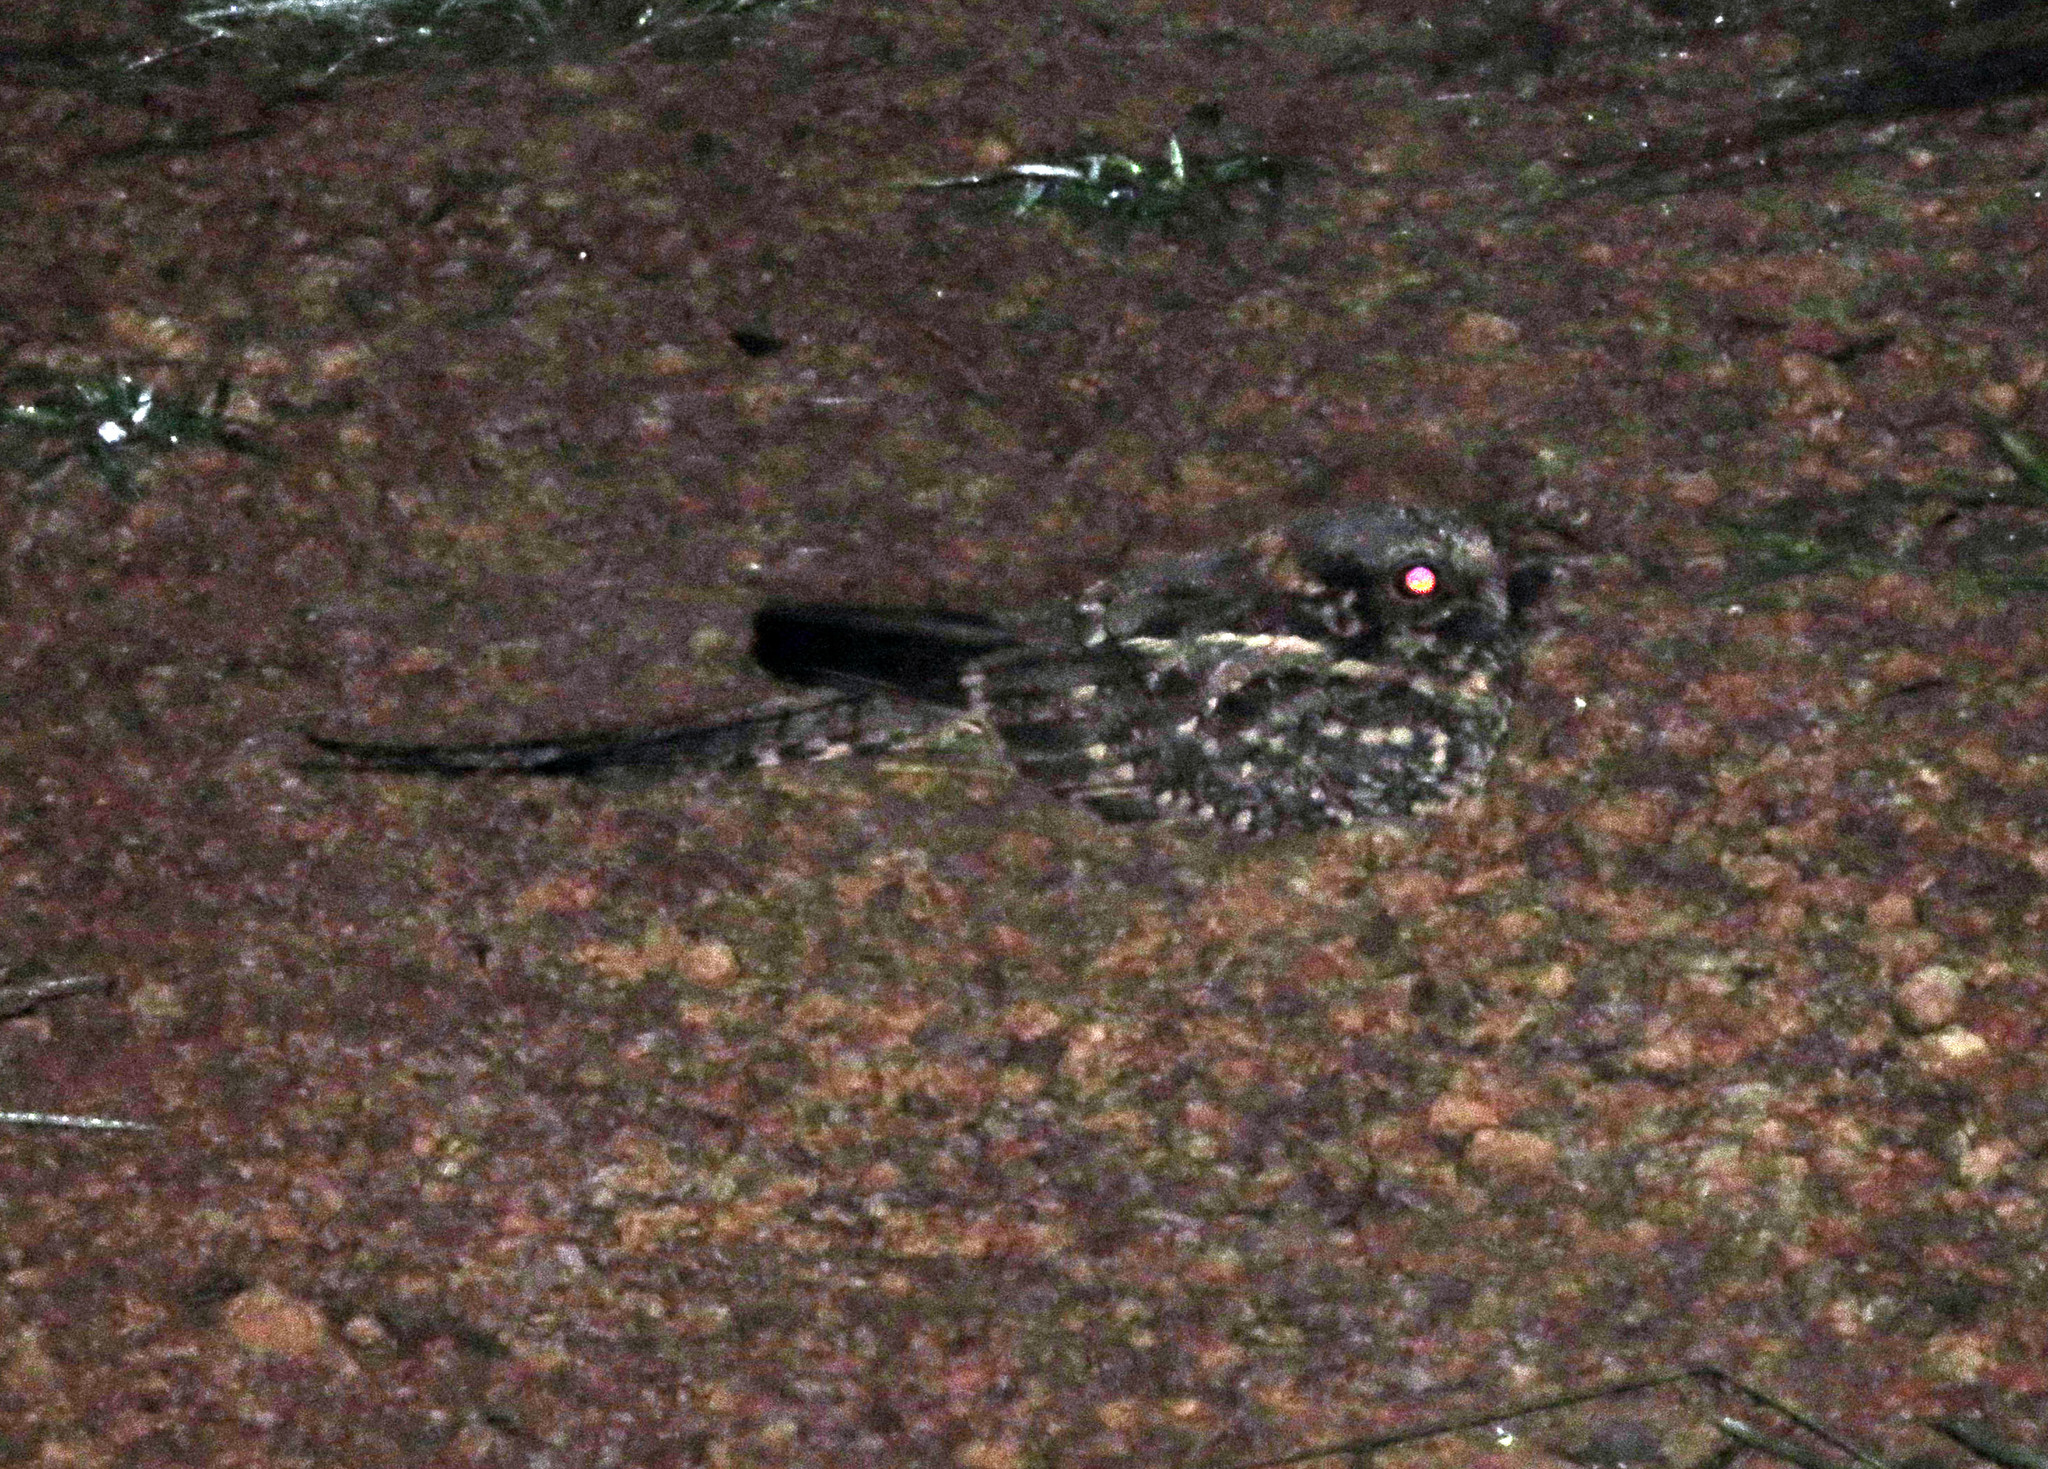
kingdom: Animalia
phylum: Chordata
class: Aves
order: Caprimulgiformes
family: Caprimulgidae
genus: Hydropsalis
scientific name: Hydropsalis torquata
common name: Scissor-tailed nightjar
